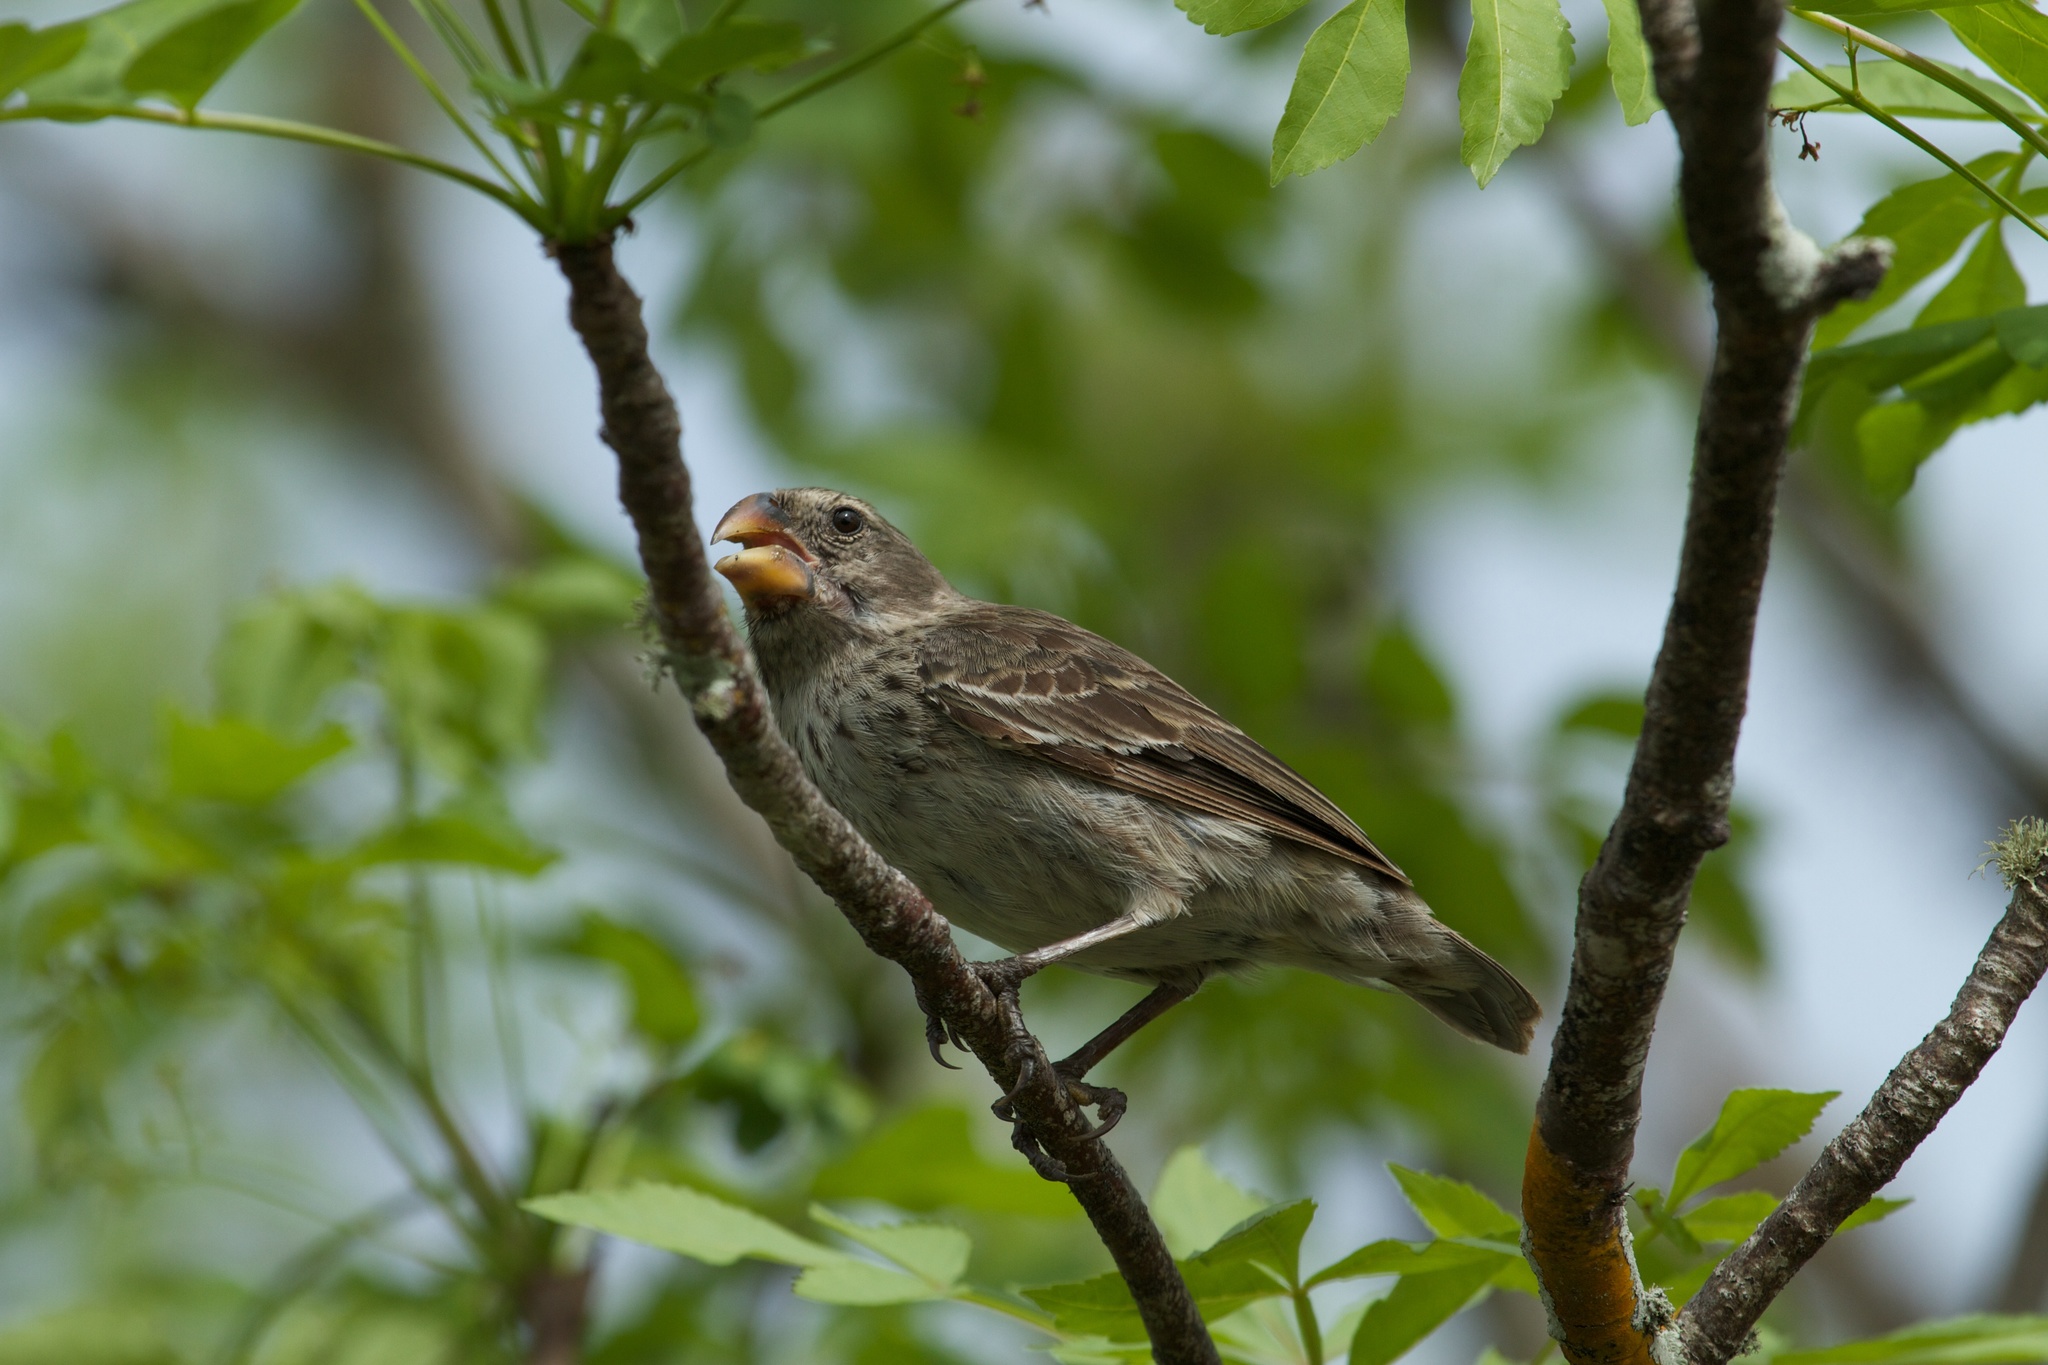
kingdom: Animalia
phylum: Chordata
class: Aves
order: Passeriformes
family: Thraupidae
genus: Platyspiza
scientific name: Platyspiza crassirostris
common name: Vegetarian finch
